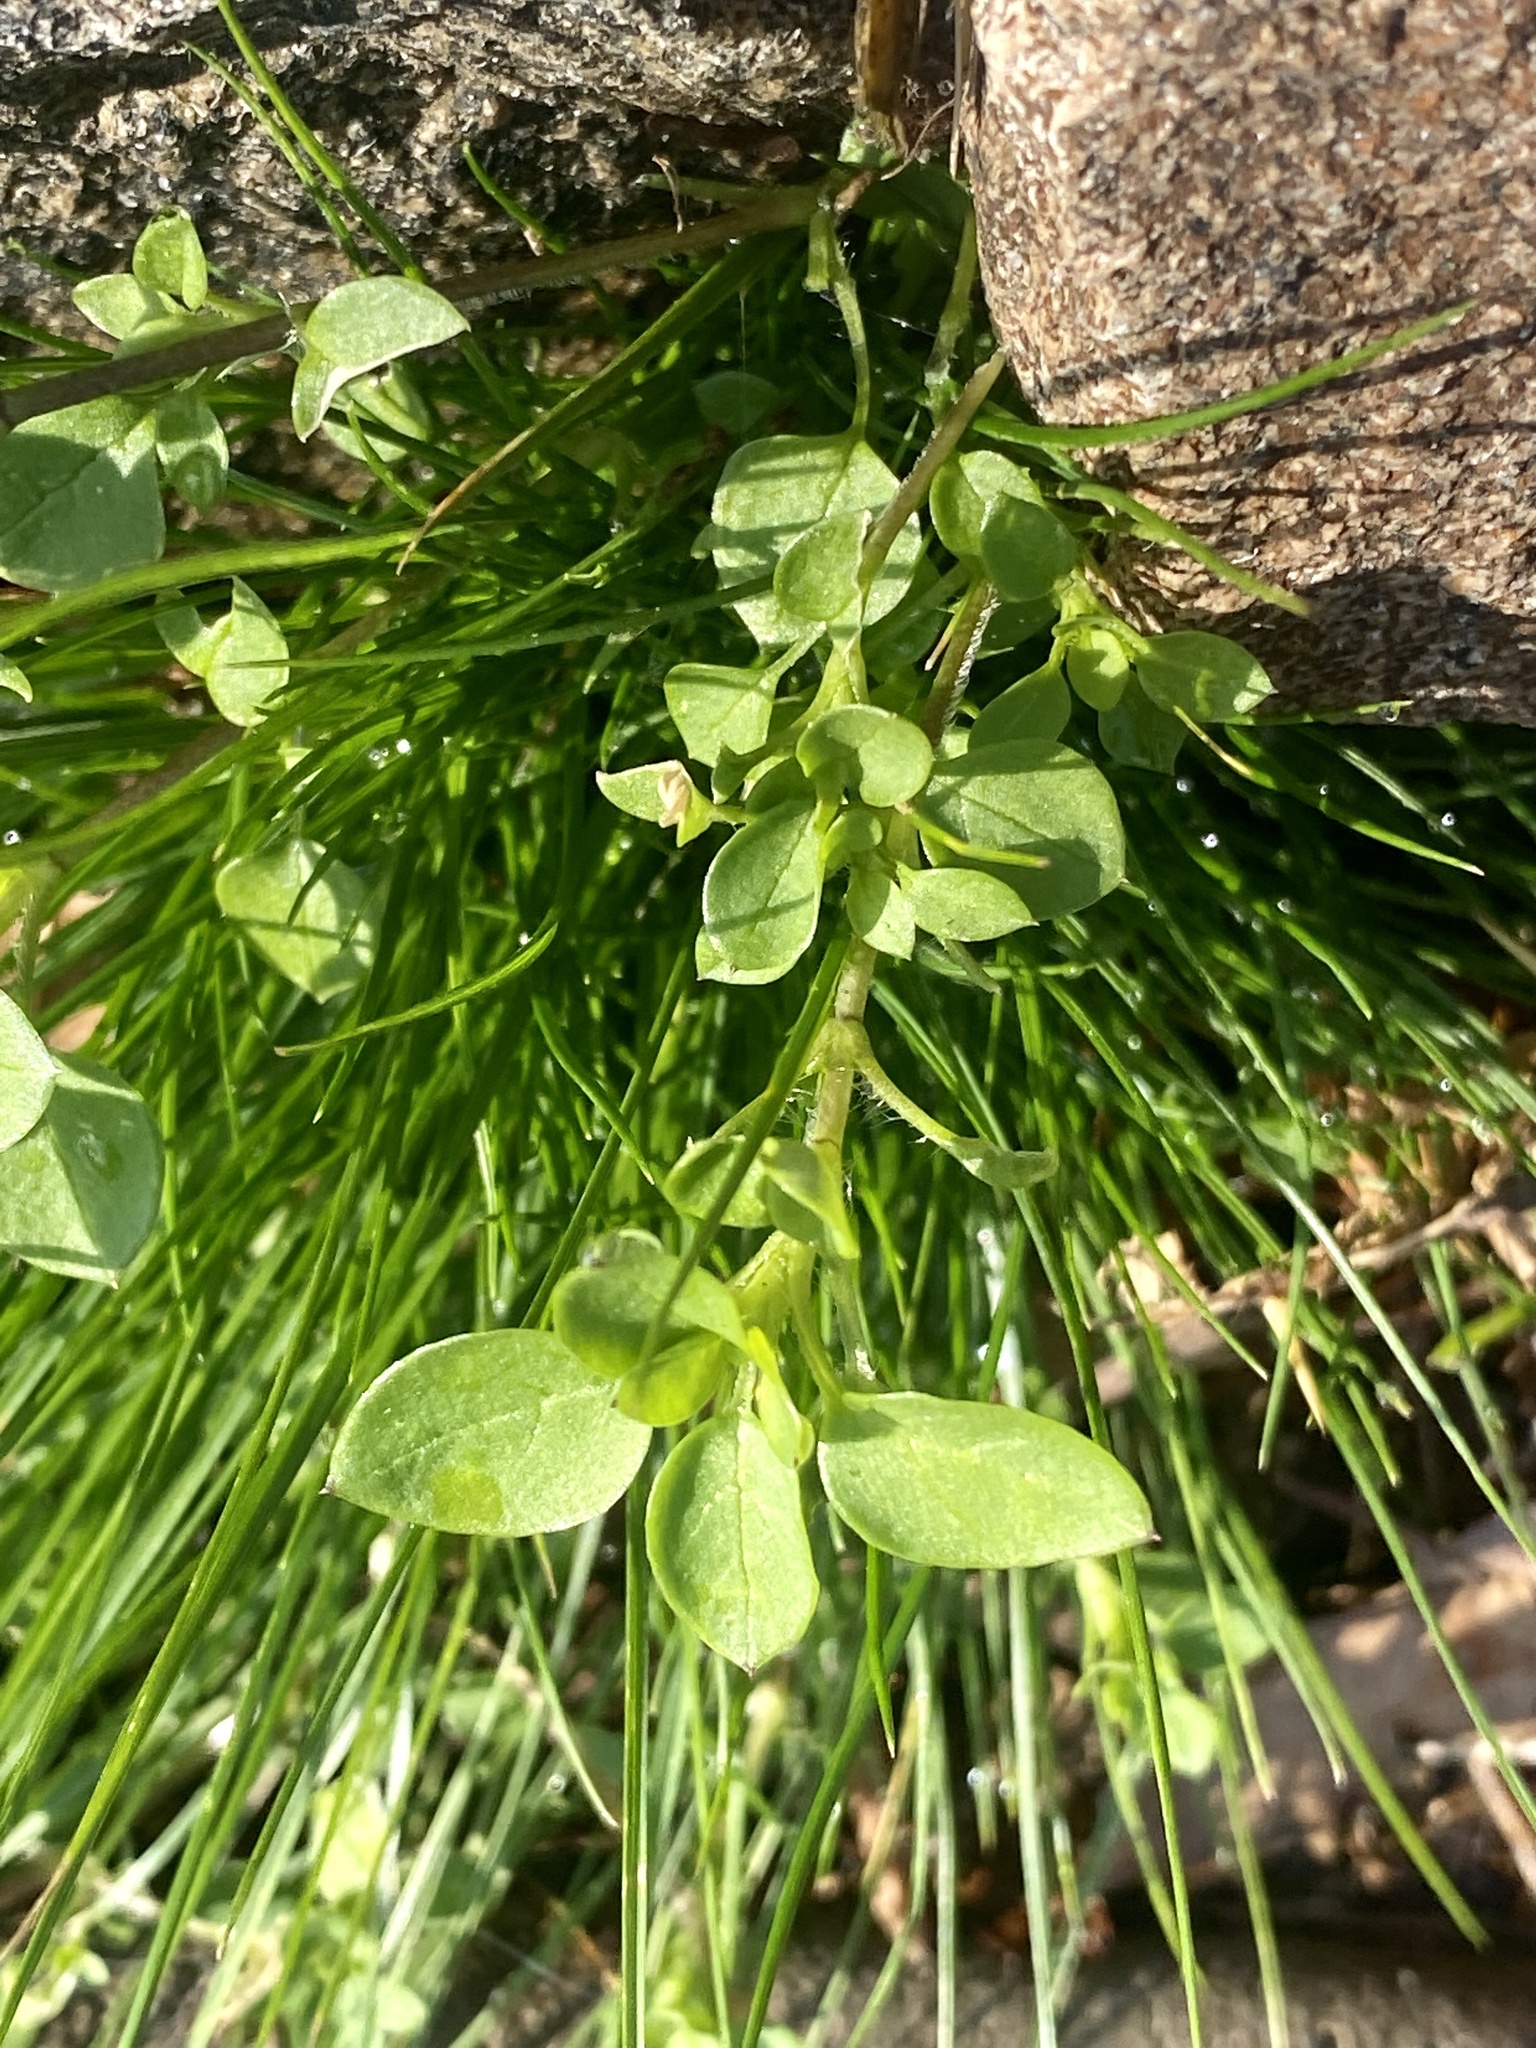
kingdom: Plantae
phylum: Tracheophyta
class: Magnoliopsida
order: Caryophyllales
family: Caryophyllaceae
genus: Stellaria
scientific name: Stellaria media
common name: Common chickweed
